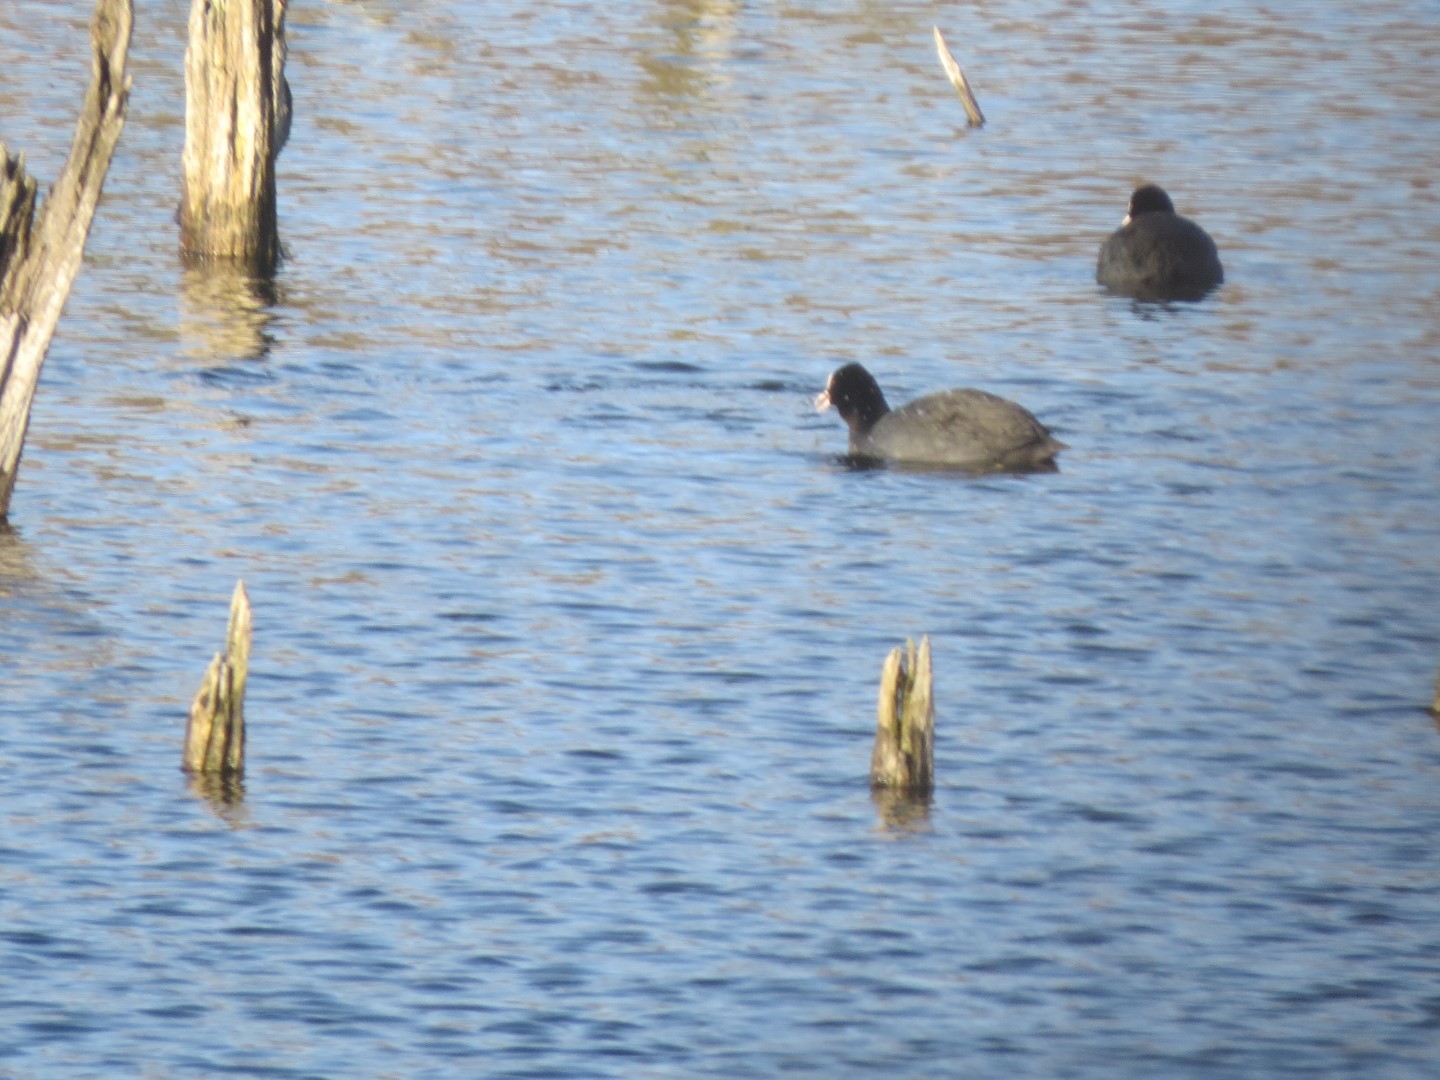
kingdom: Animalia
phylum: Chordata
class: Aves
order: Gruiformes
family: Rallidae
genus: Fulica
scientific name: Fulica atra
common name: Eurasian coot
